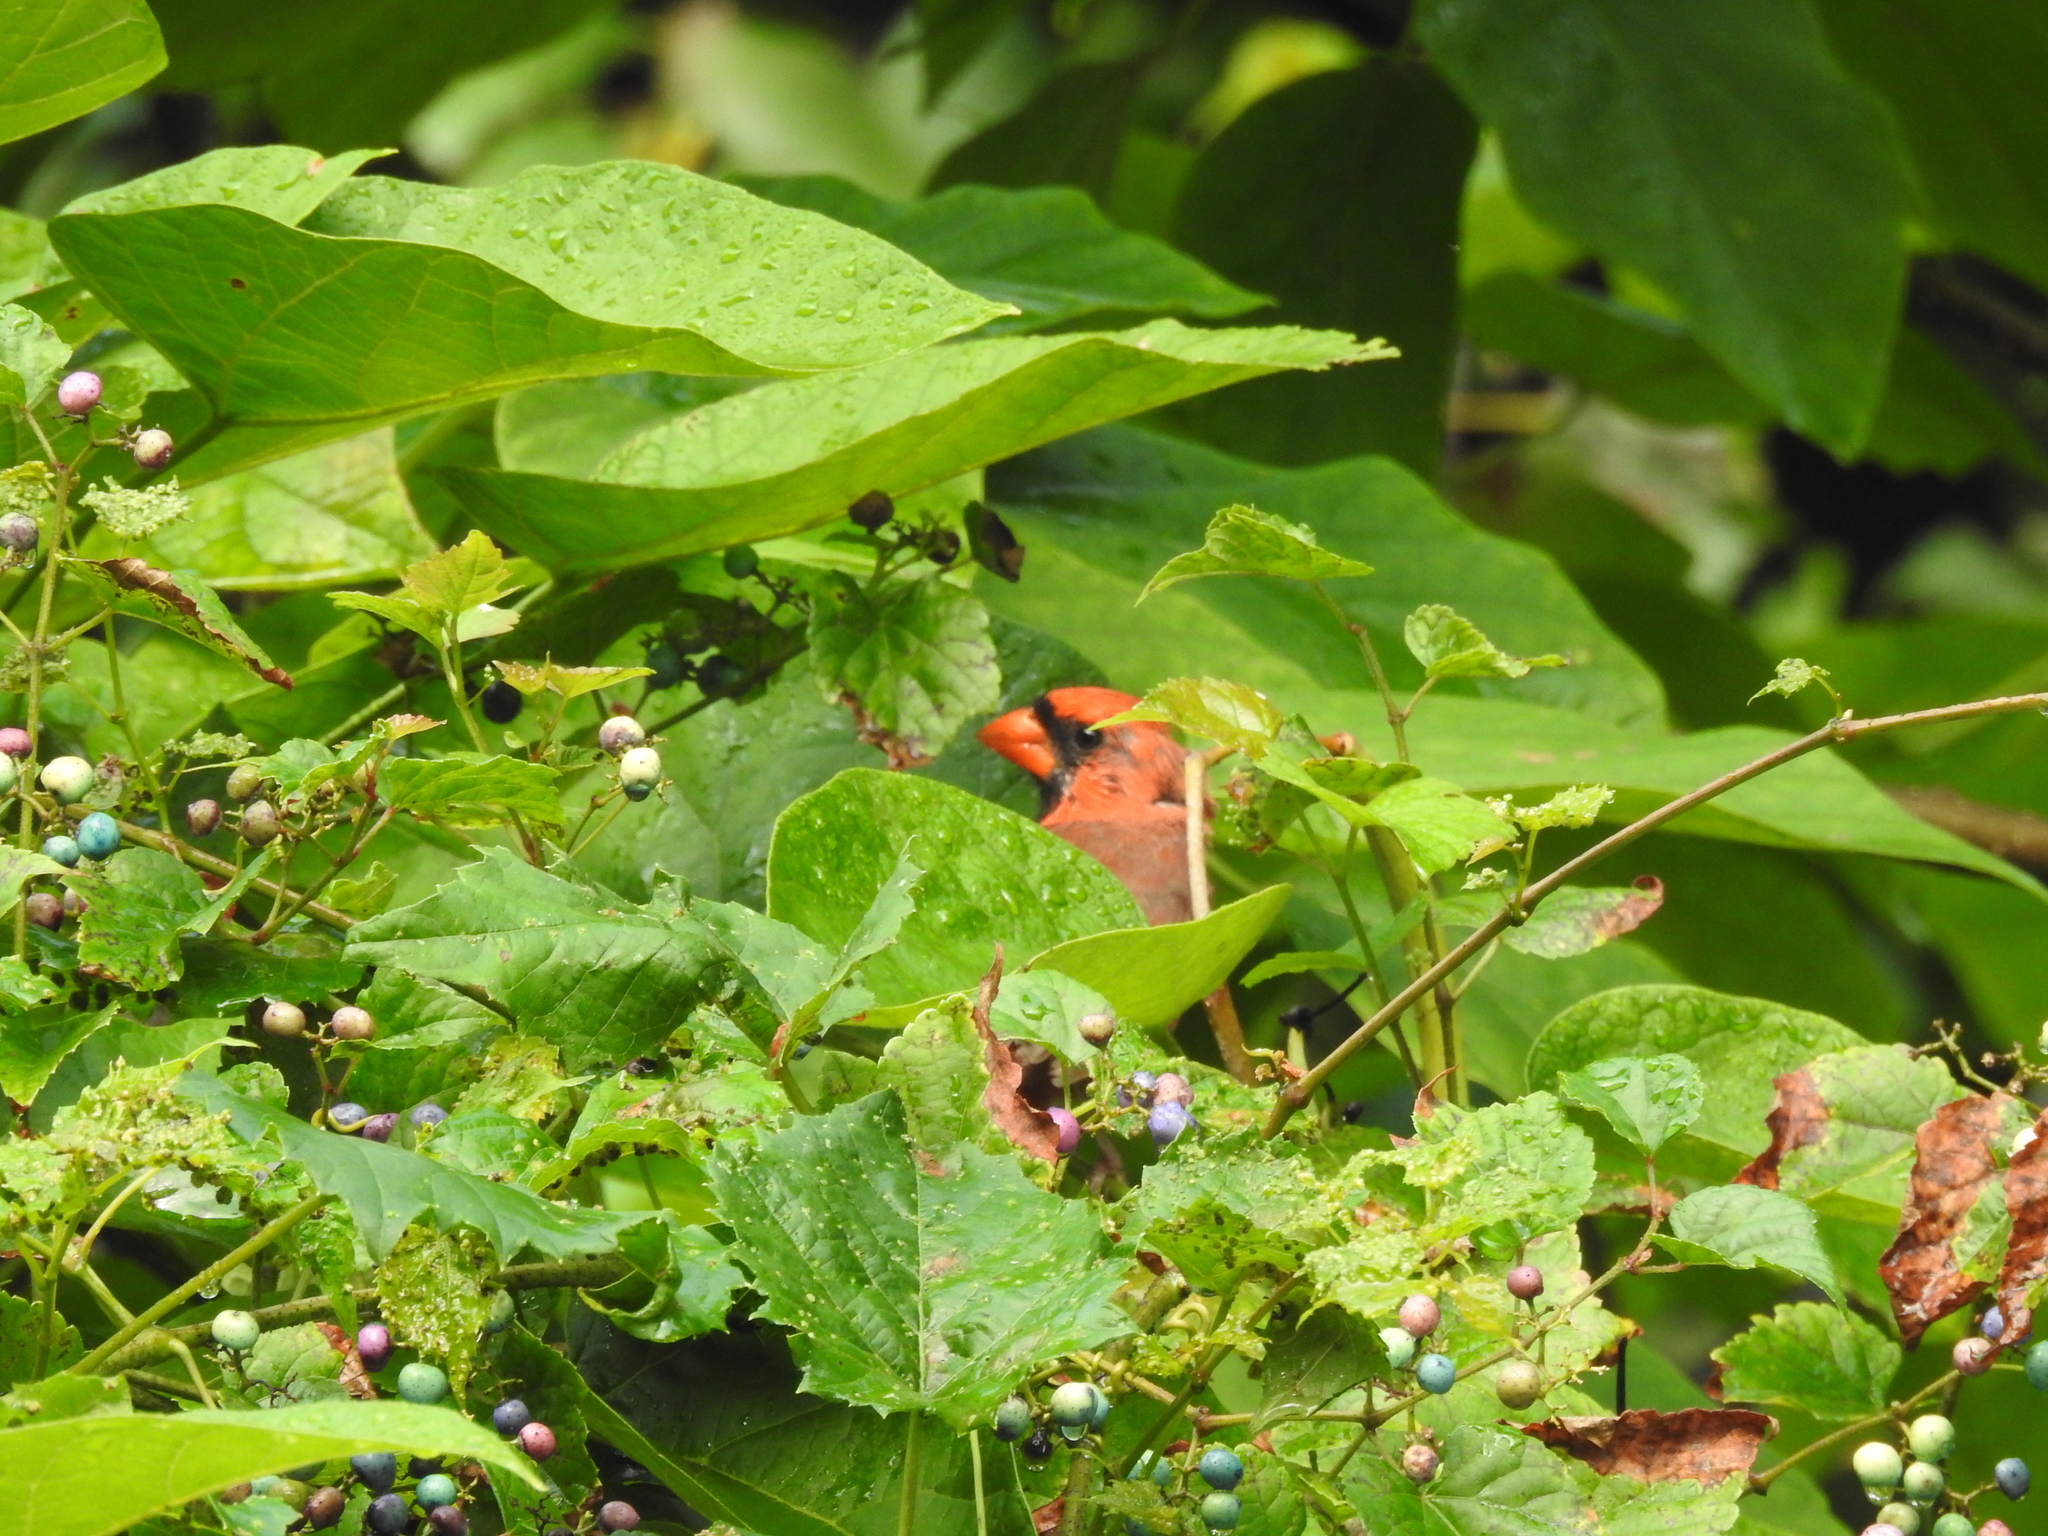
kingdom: Animalia
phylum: Chordata
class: Aves
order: Passeriformes
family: Cardinalidae
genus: Cardinalis
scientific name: Cardinalis cardinalis
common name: Northern cardinal
